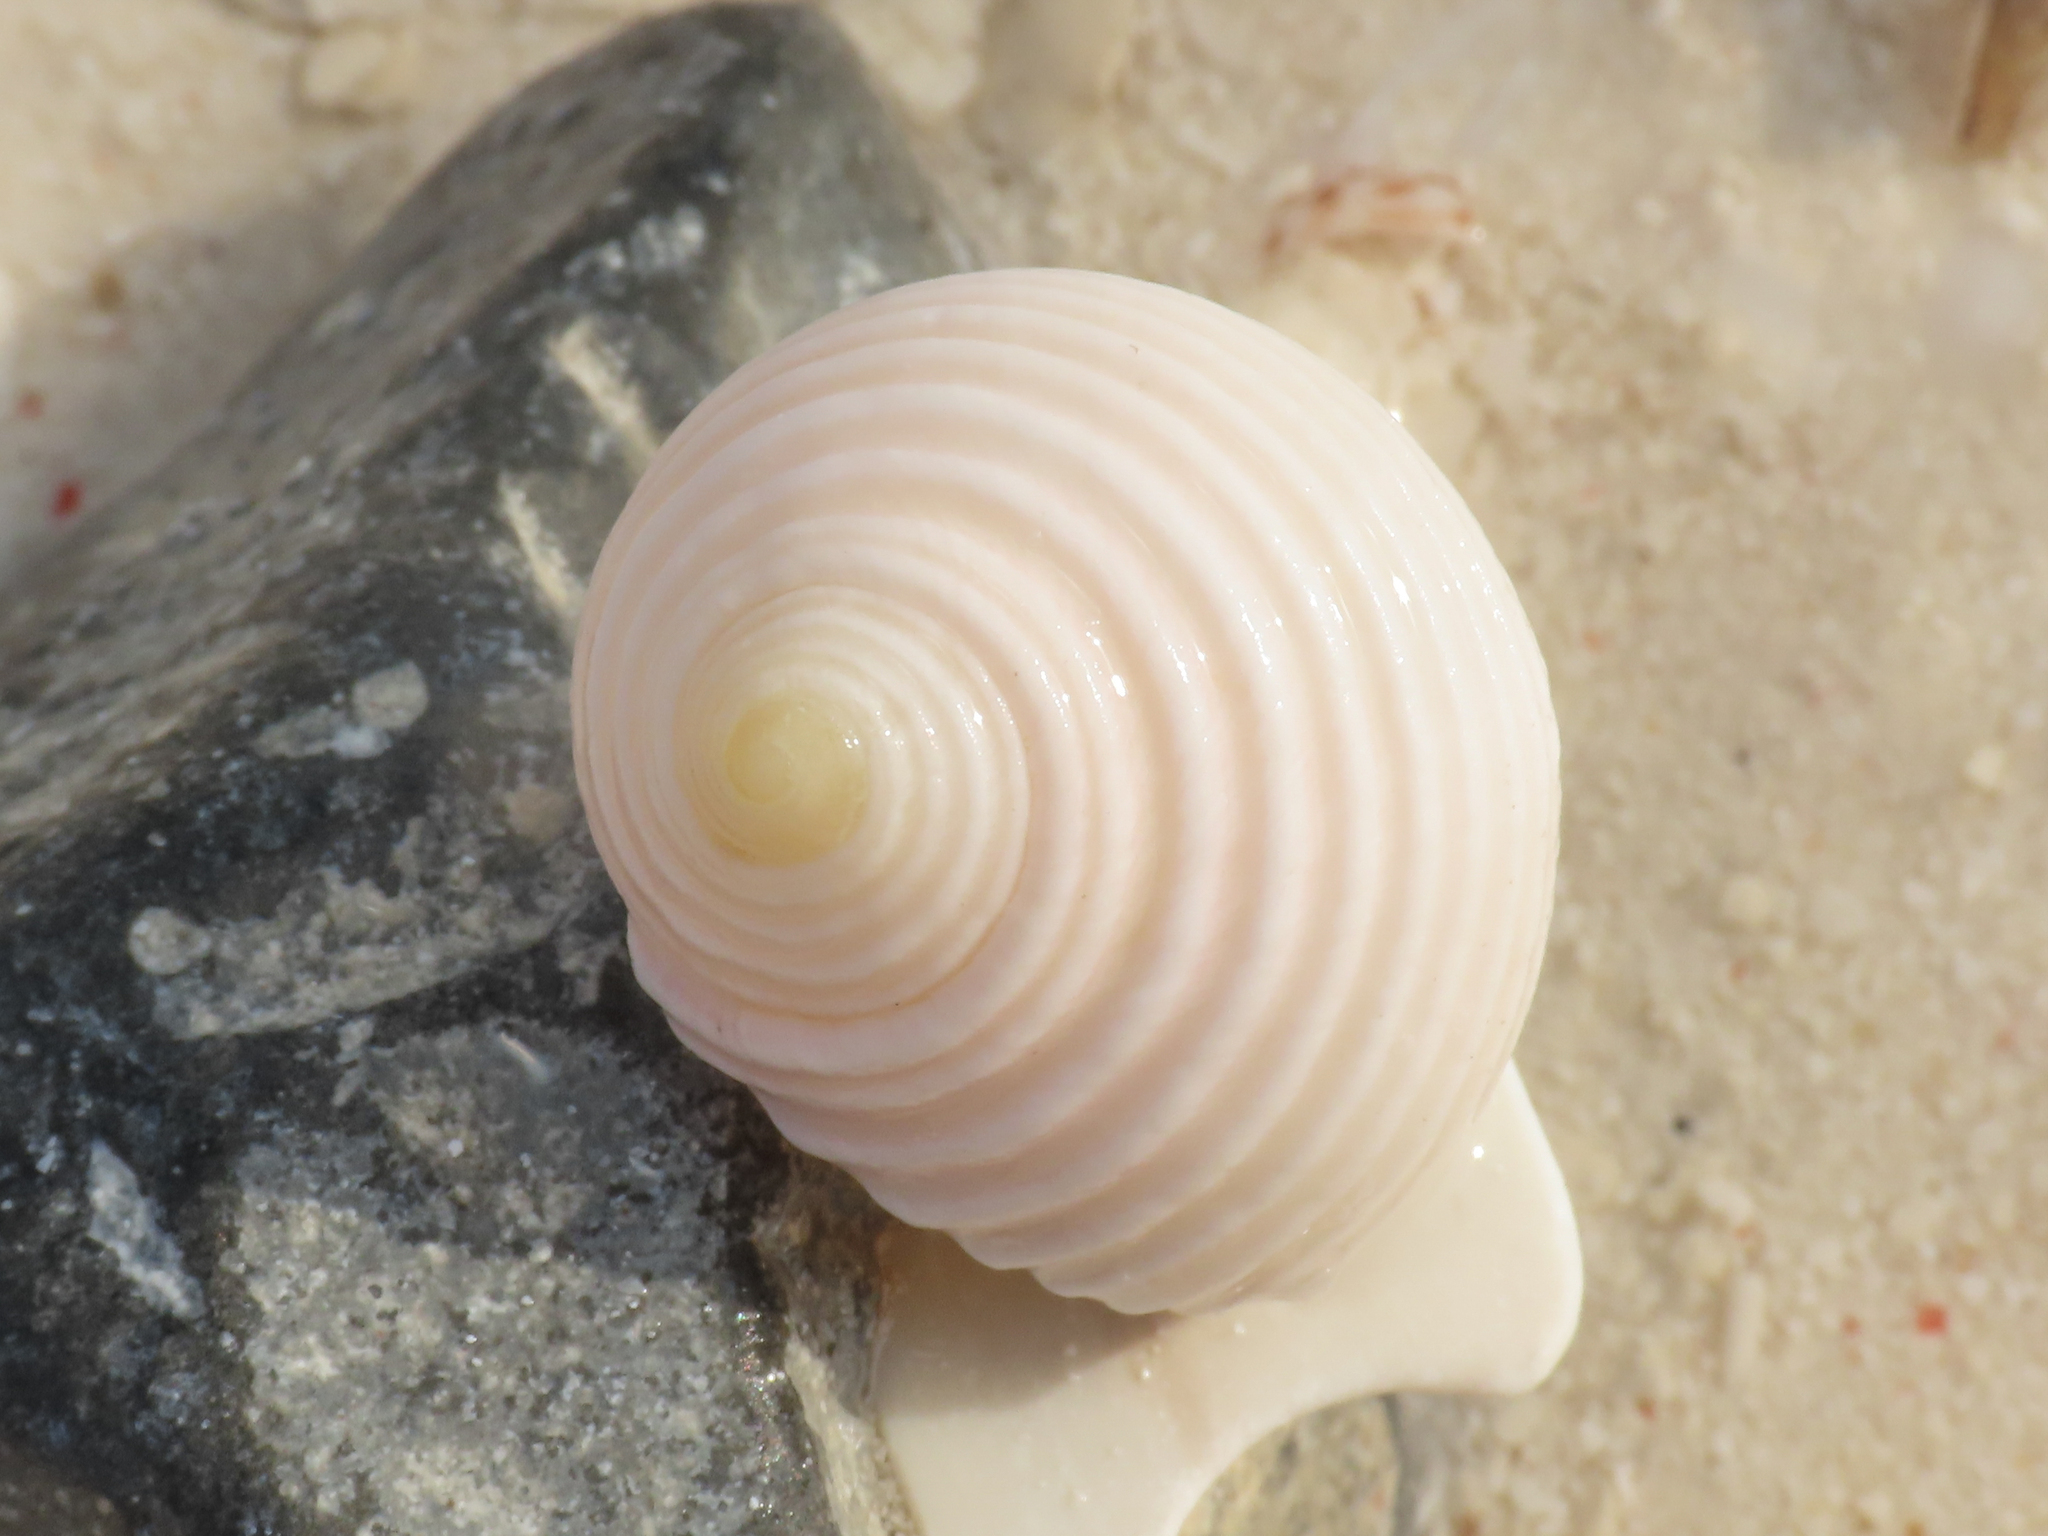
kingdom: Animalia
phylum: Mollusca
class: Gastropoda
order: Cycloneritida
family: Neritidae
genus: Nerita
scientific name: Nerita plicata
